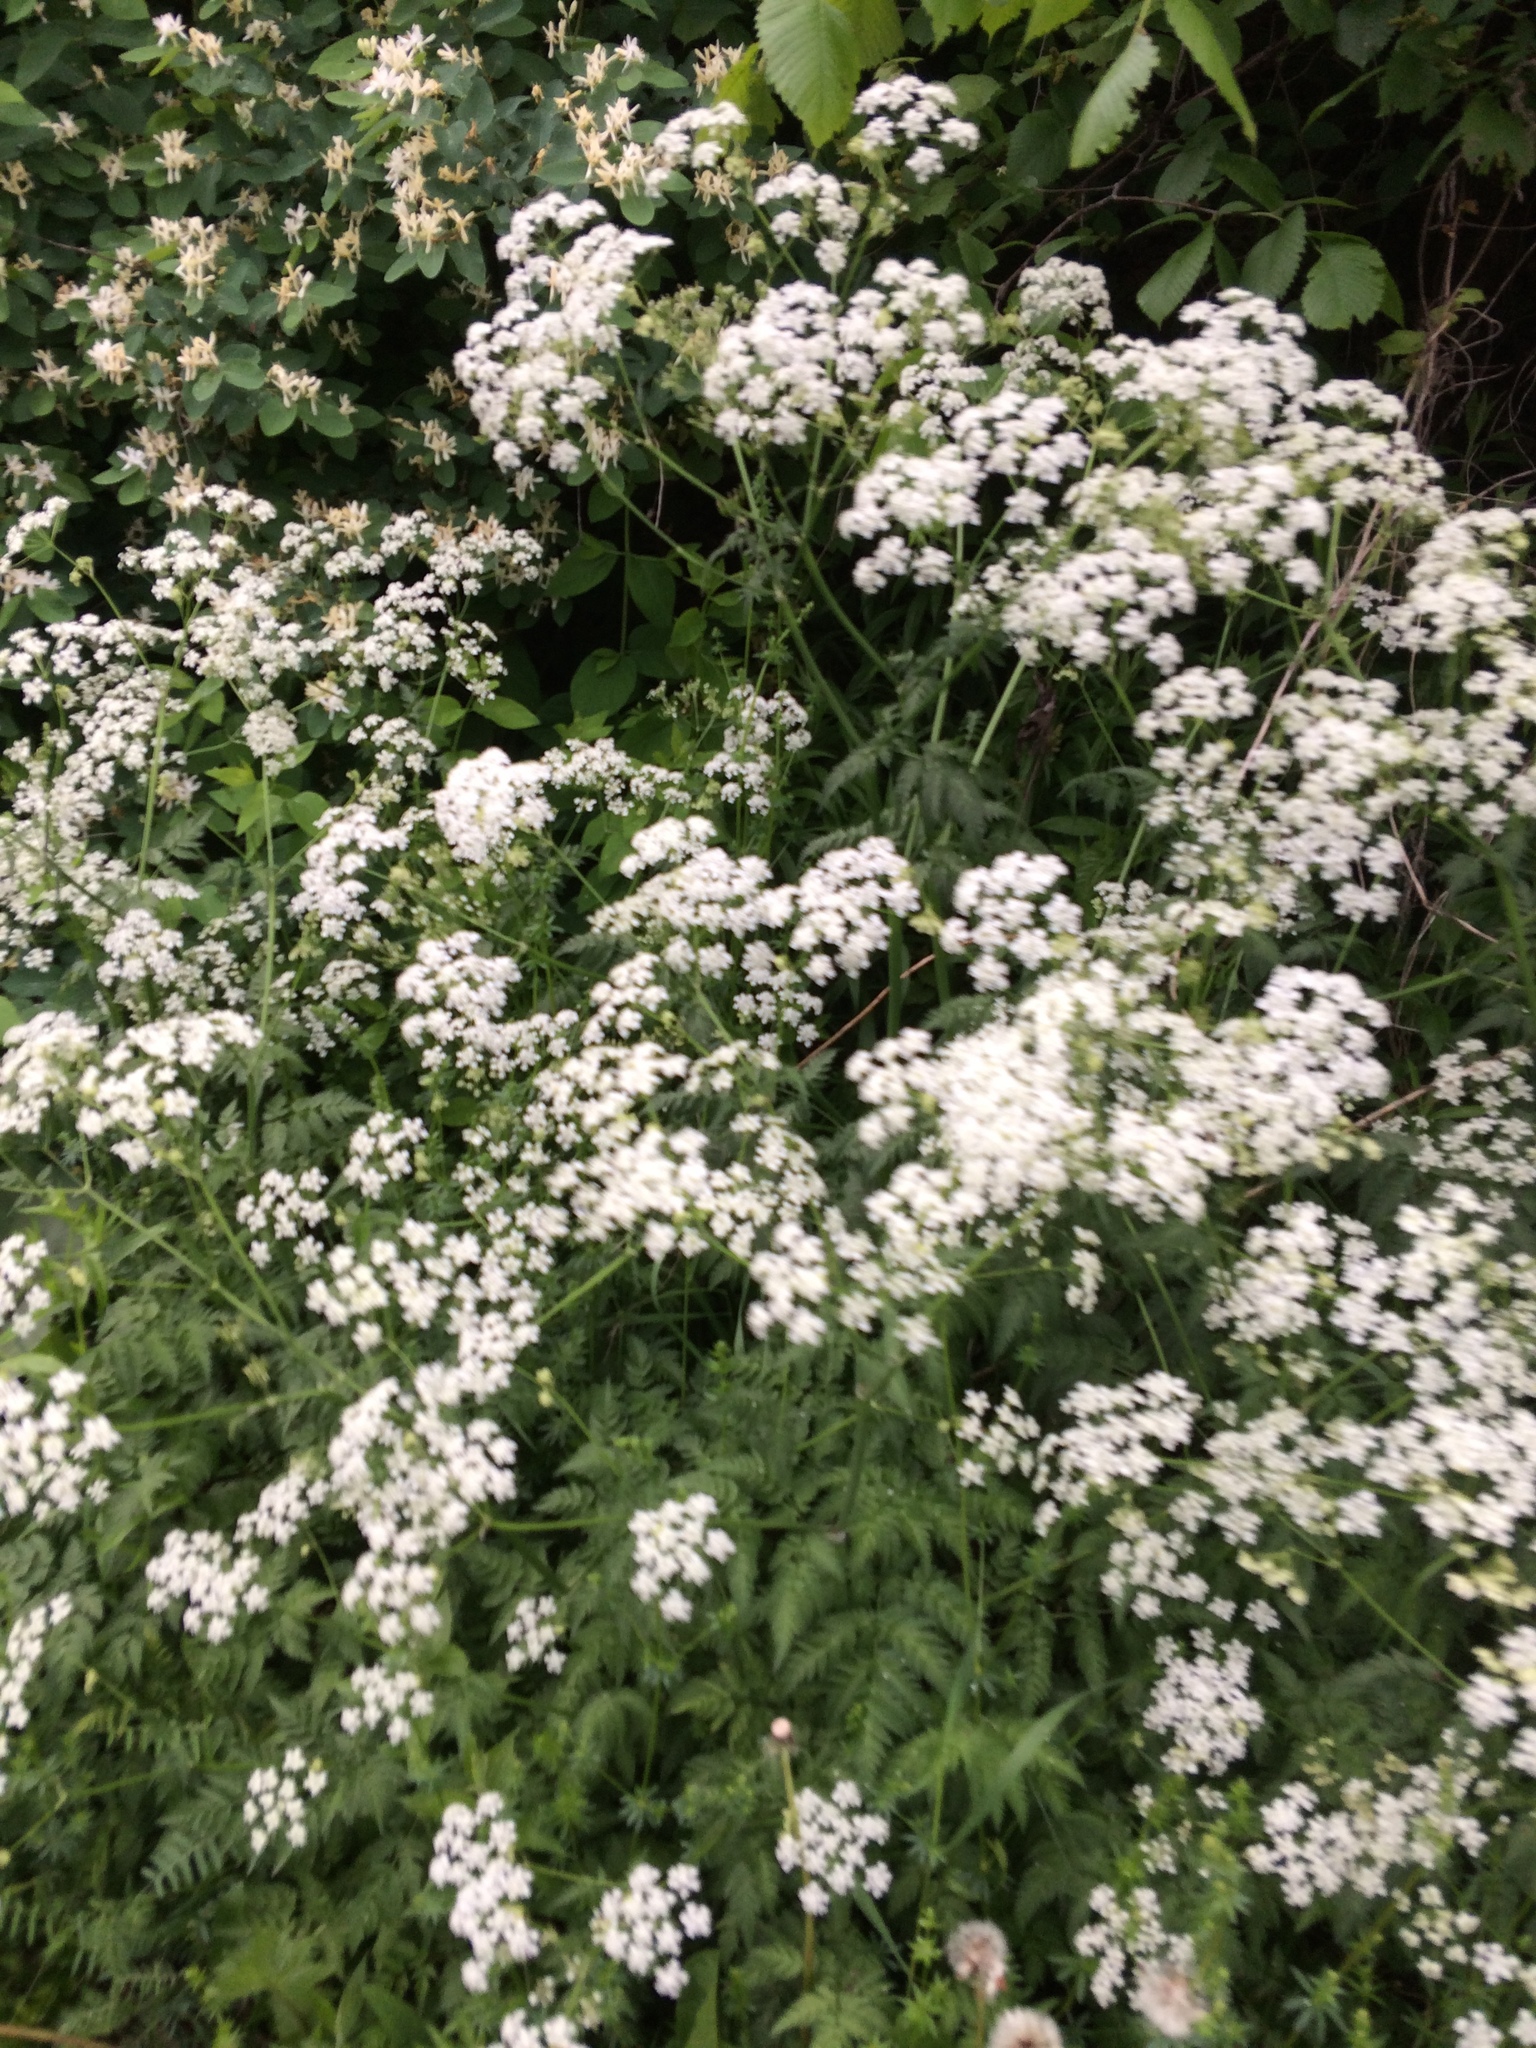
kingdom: Plantae
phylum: Tracheophyta
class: Magnoliopsida
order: Apiales
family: Apiaceae
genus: Anthriscus
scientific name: Anthriscus sylvestris
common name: Cow parsley
